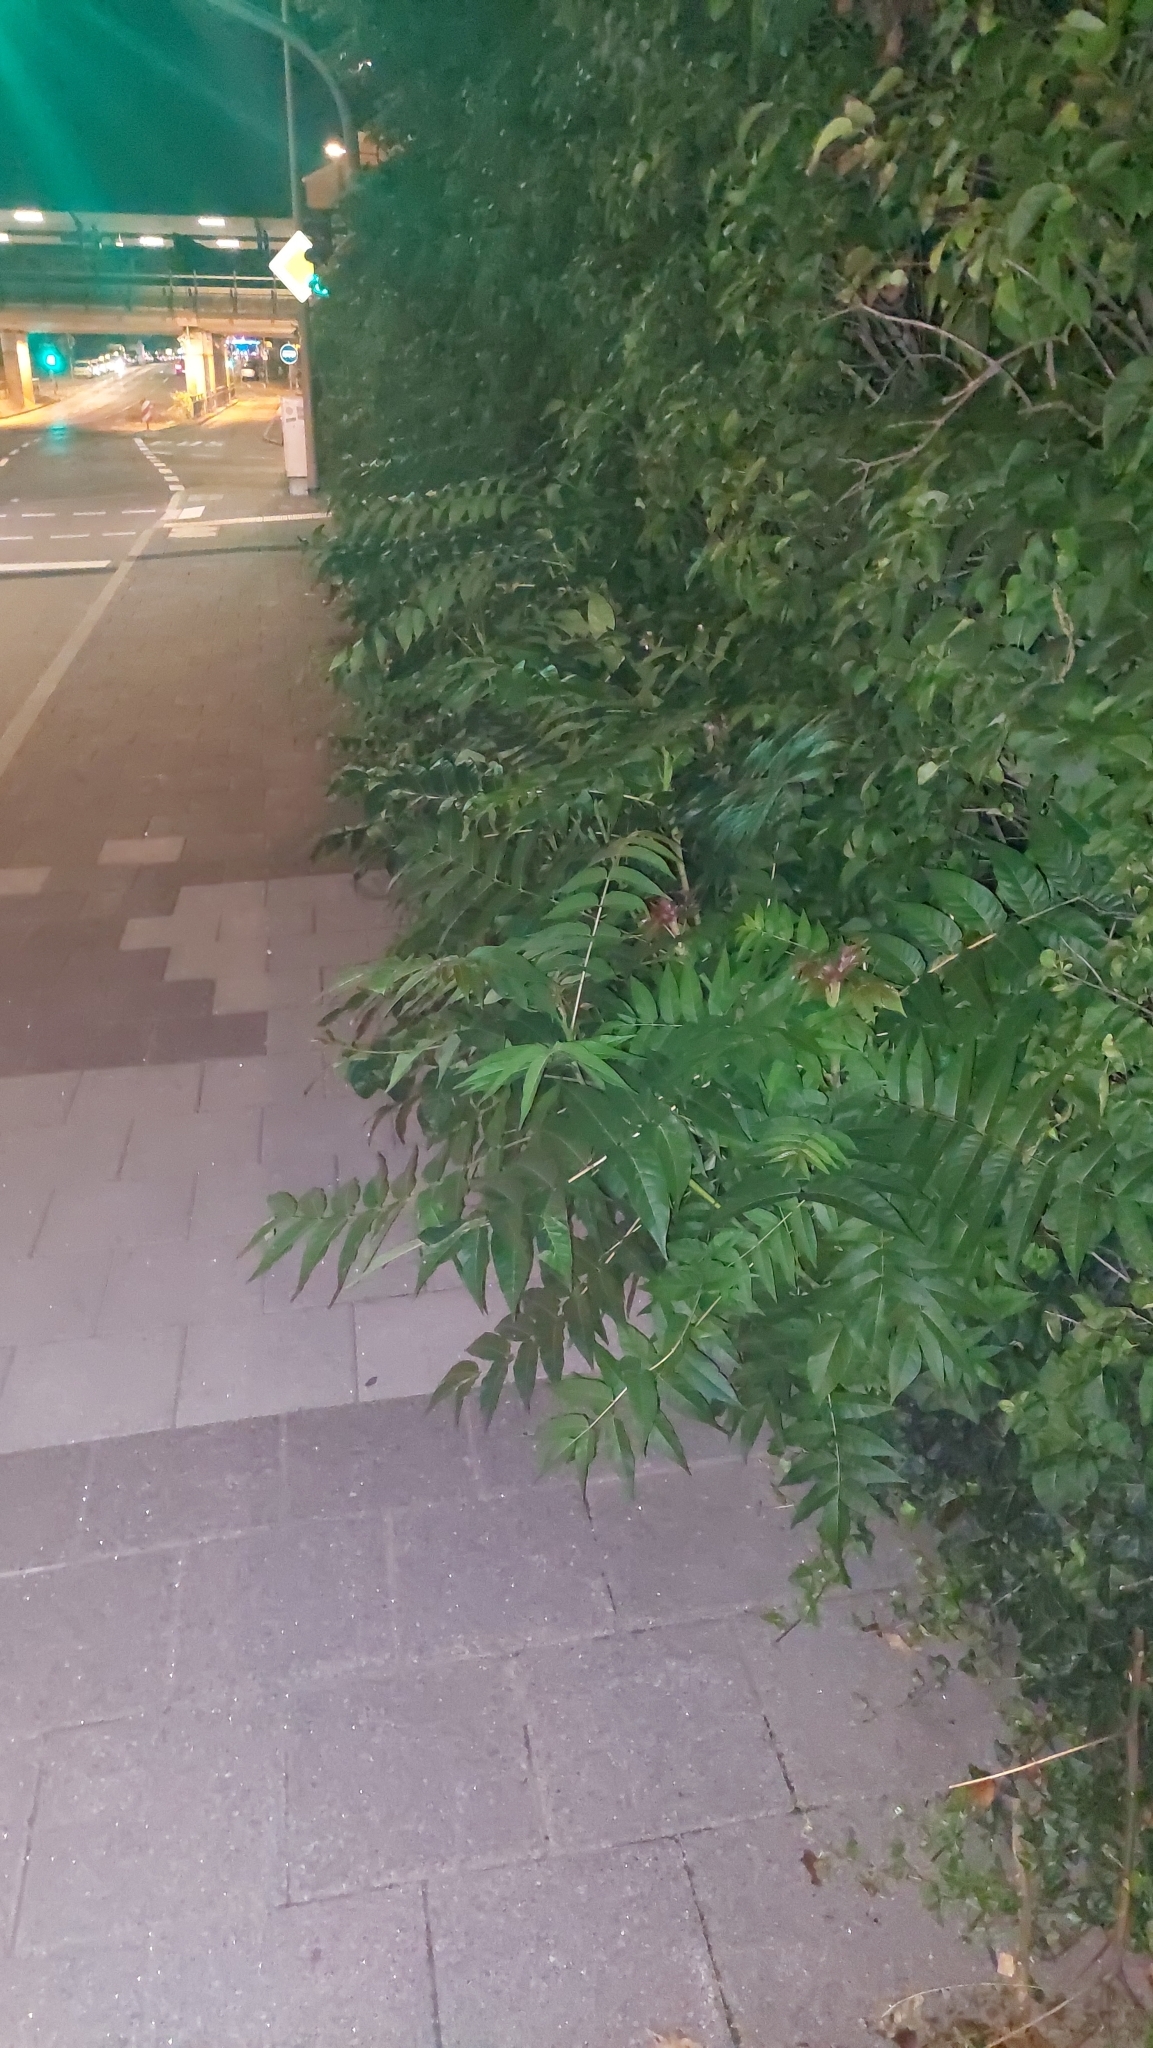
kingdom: Plantae
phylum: Tracheophyta
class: Magnoliopsida
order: Sapindales
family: Simaroubaceae
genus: Ailanthus
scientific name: Ailanthus altissima
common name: Tree-of-heaven
